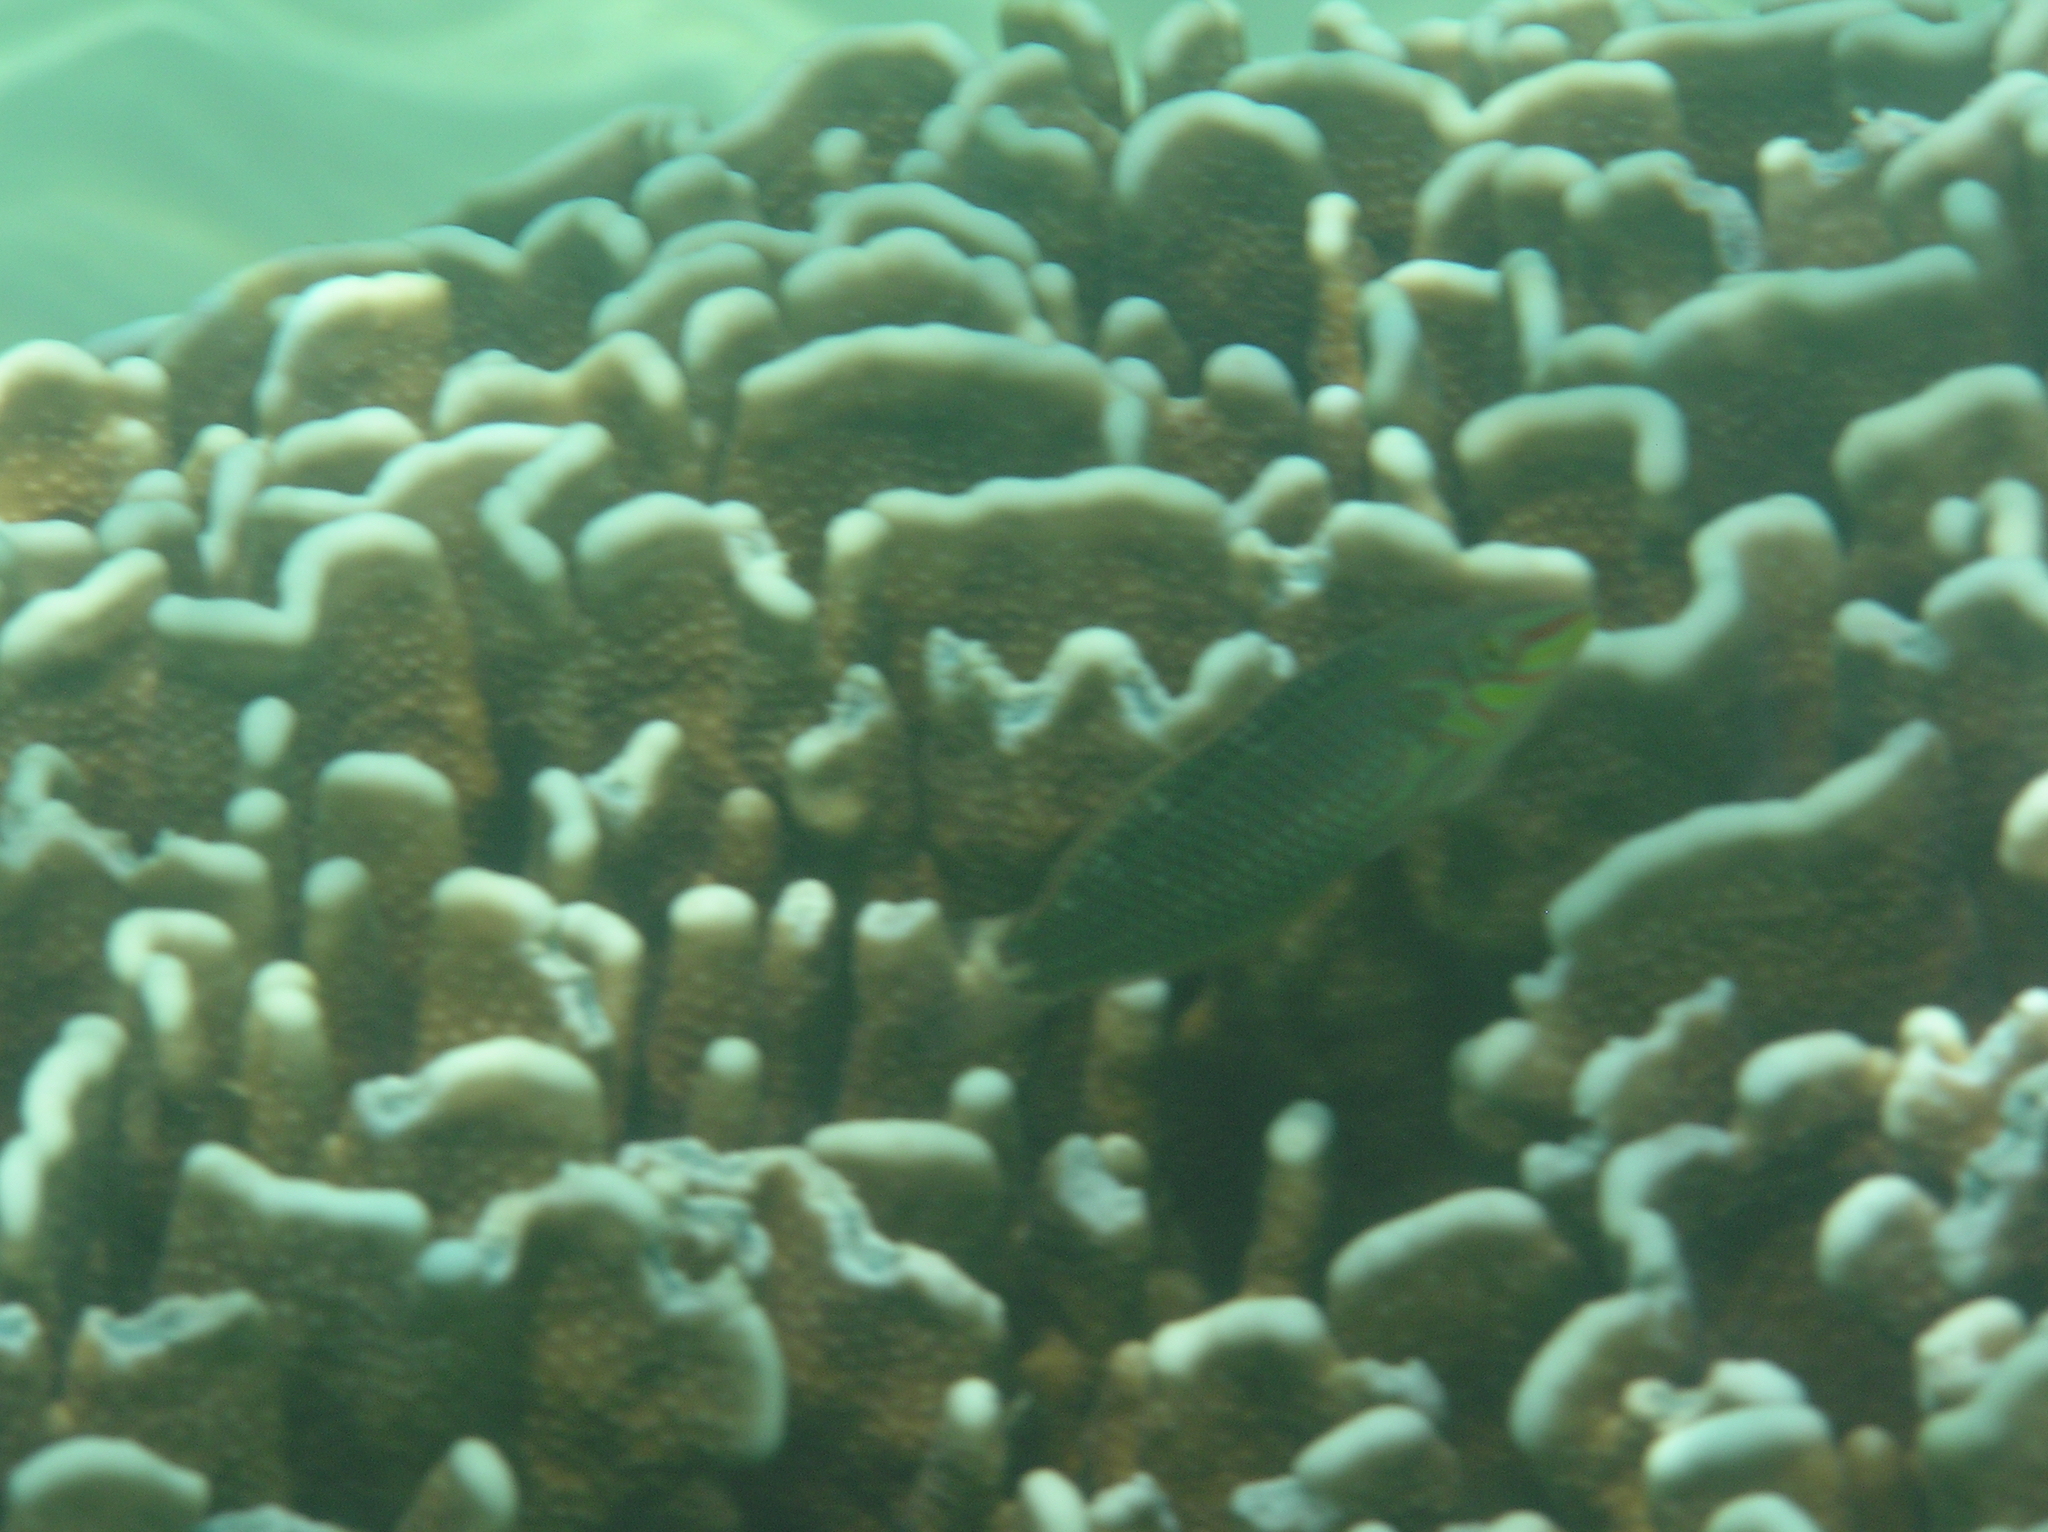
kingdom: Animalia
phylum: Chordata
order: Perciformes
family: Labridae
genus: Halichoeres
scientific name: Halichoeres argus
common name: Argus wrasse
